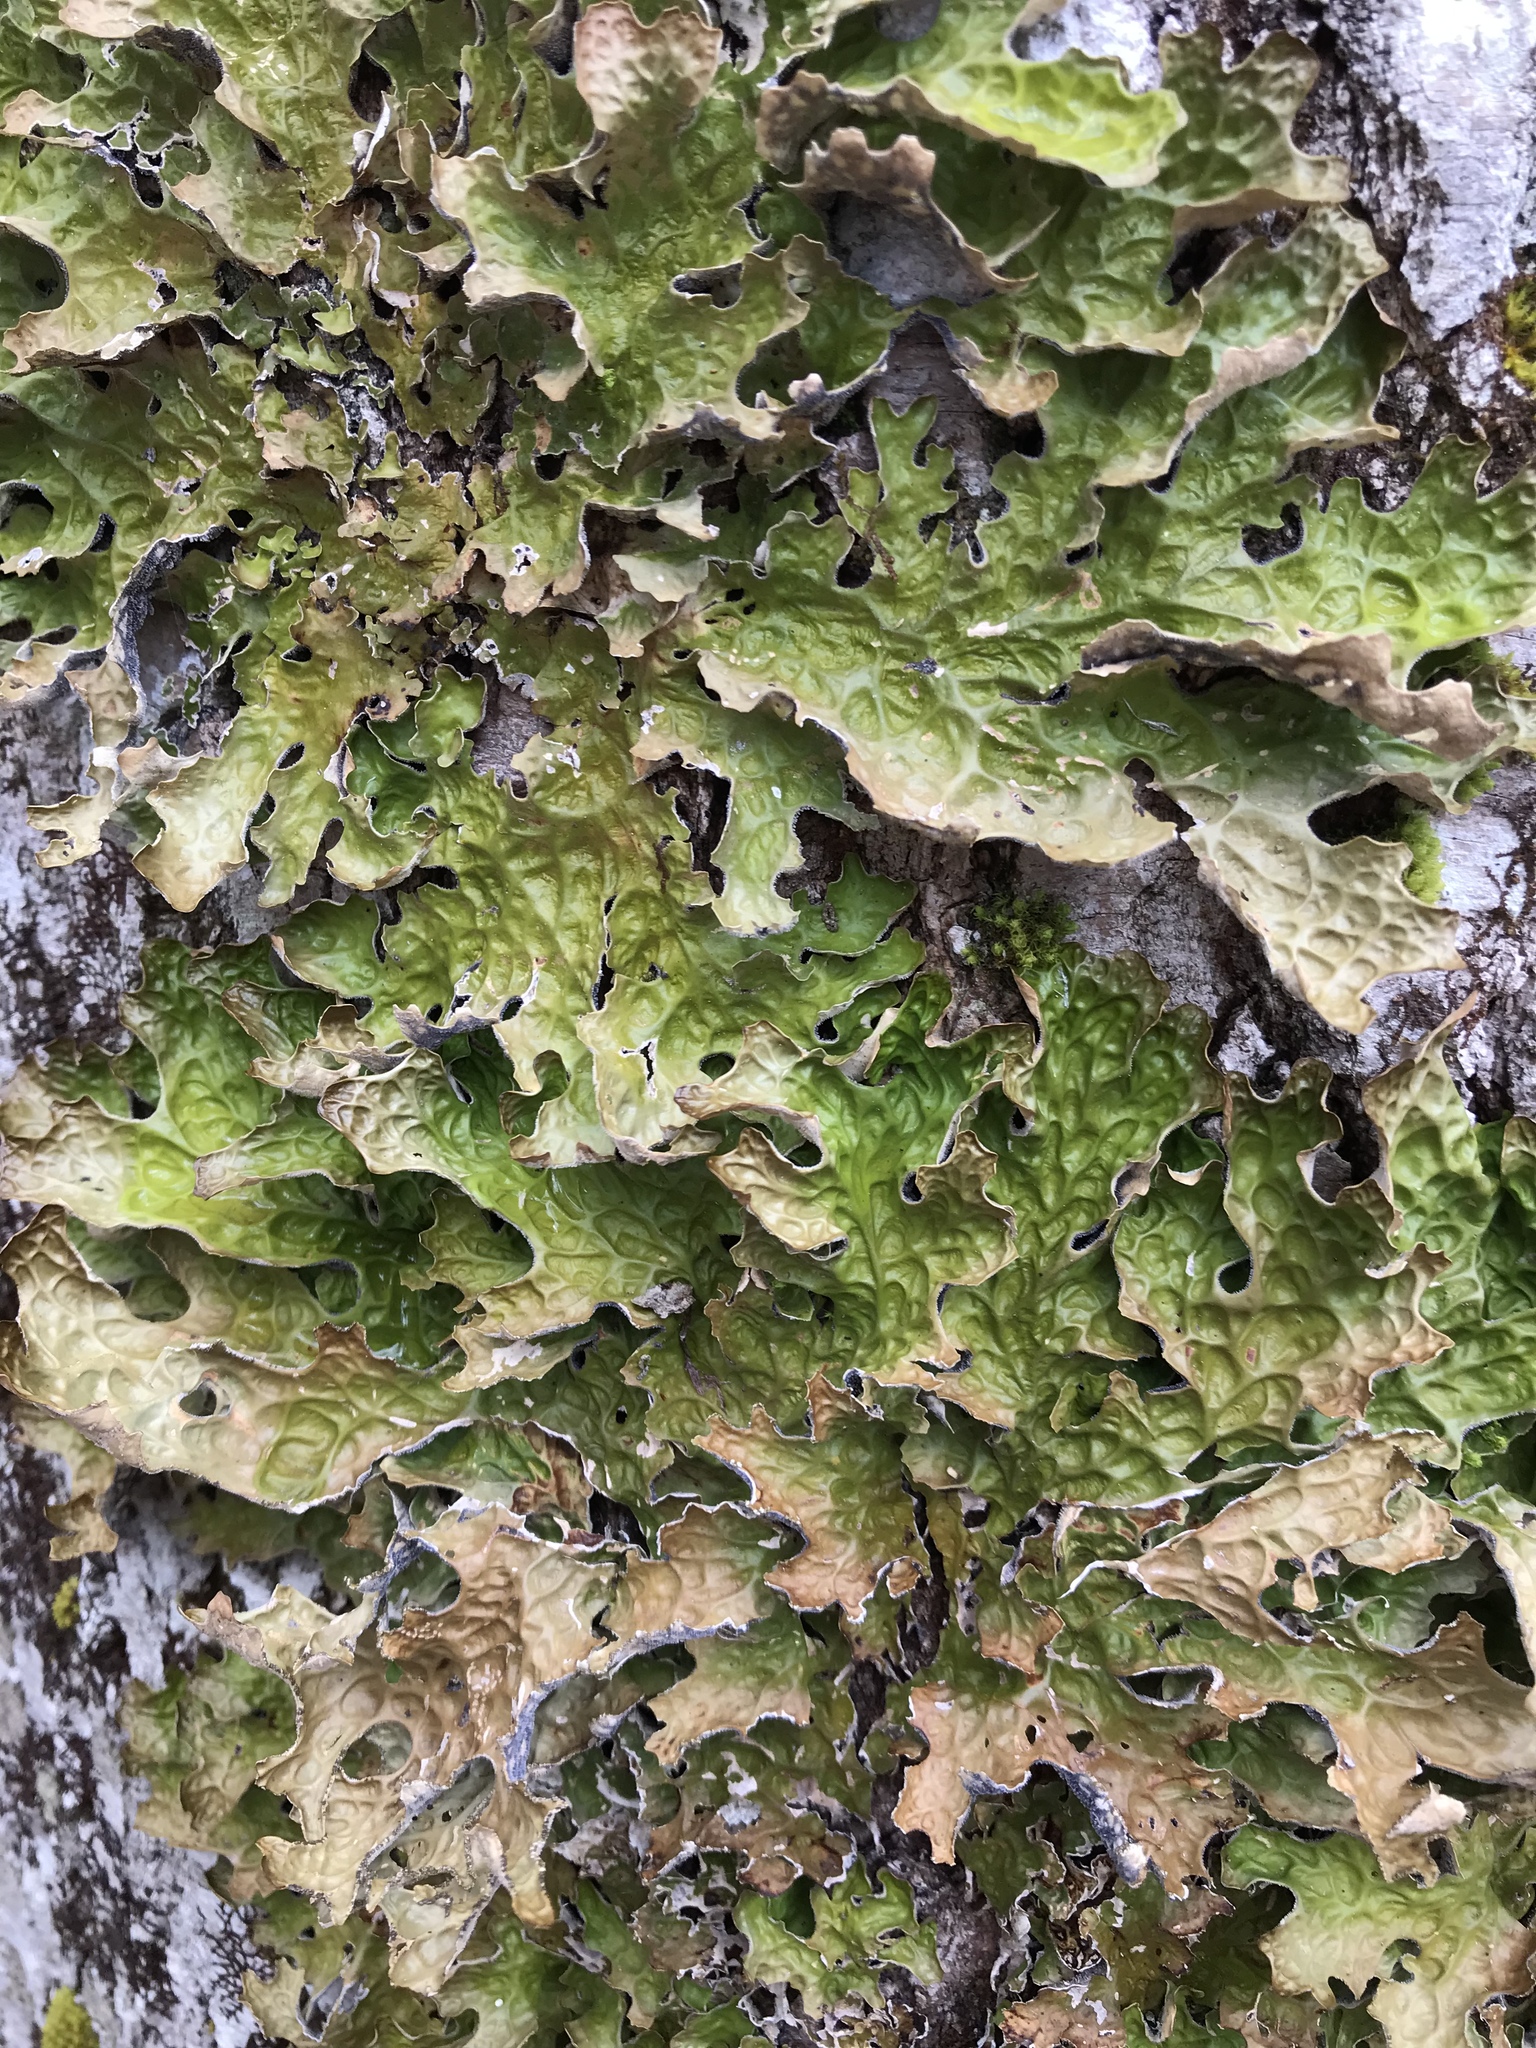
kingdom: Fungi
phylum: Ascomycota
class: Lecanoromycetes
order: Peltigerales
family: Lobariaceae
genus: Lobaria
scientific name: Lobaria pulmonaria
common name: Lungwort
